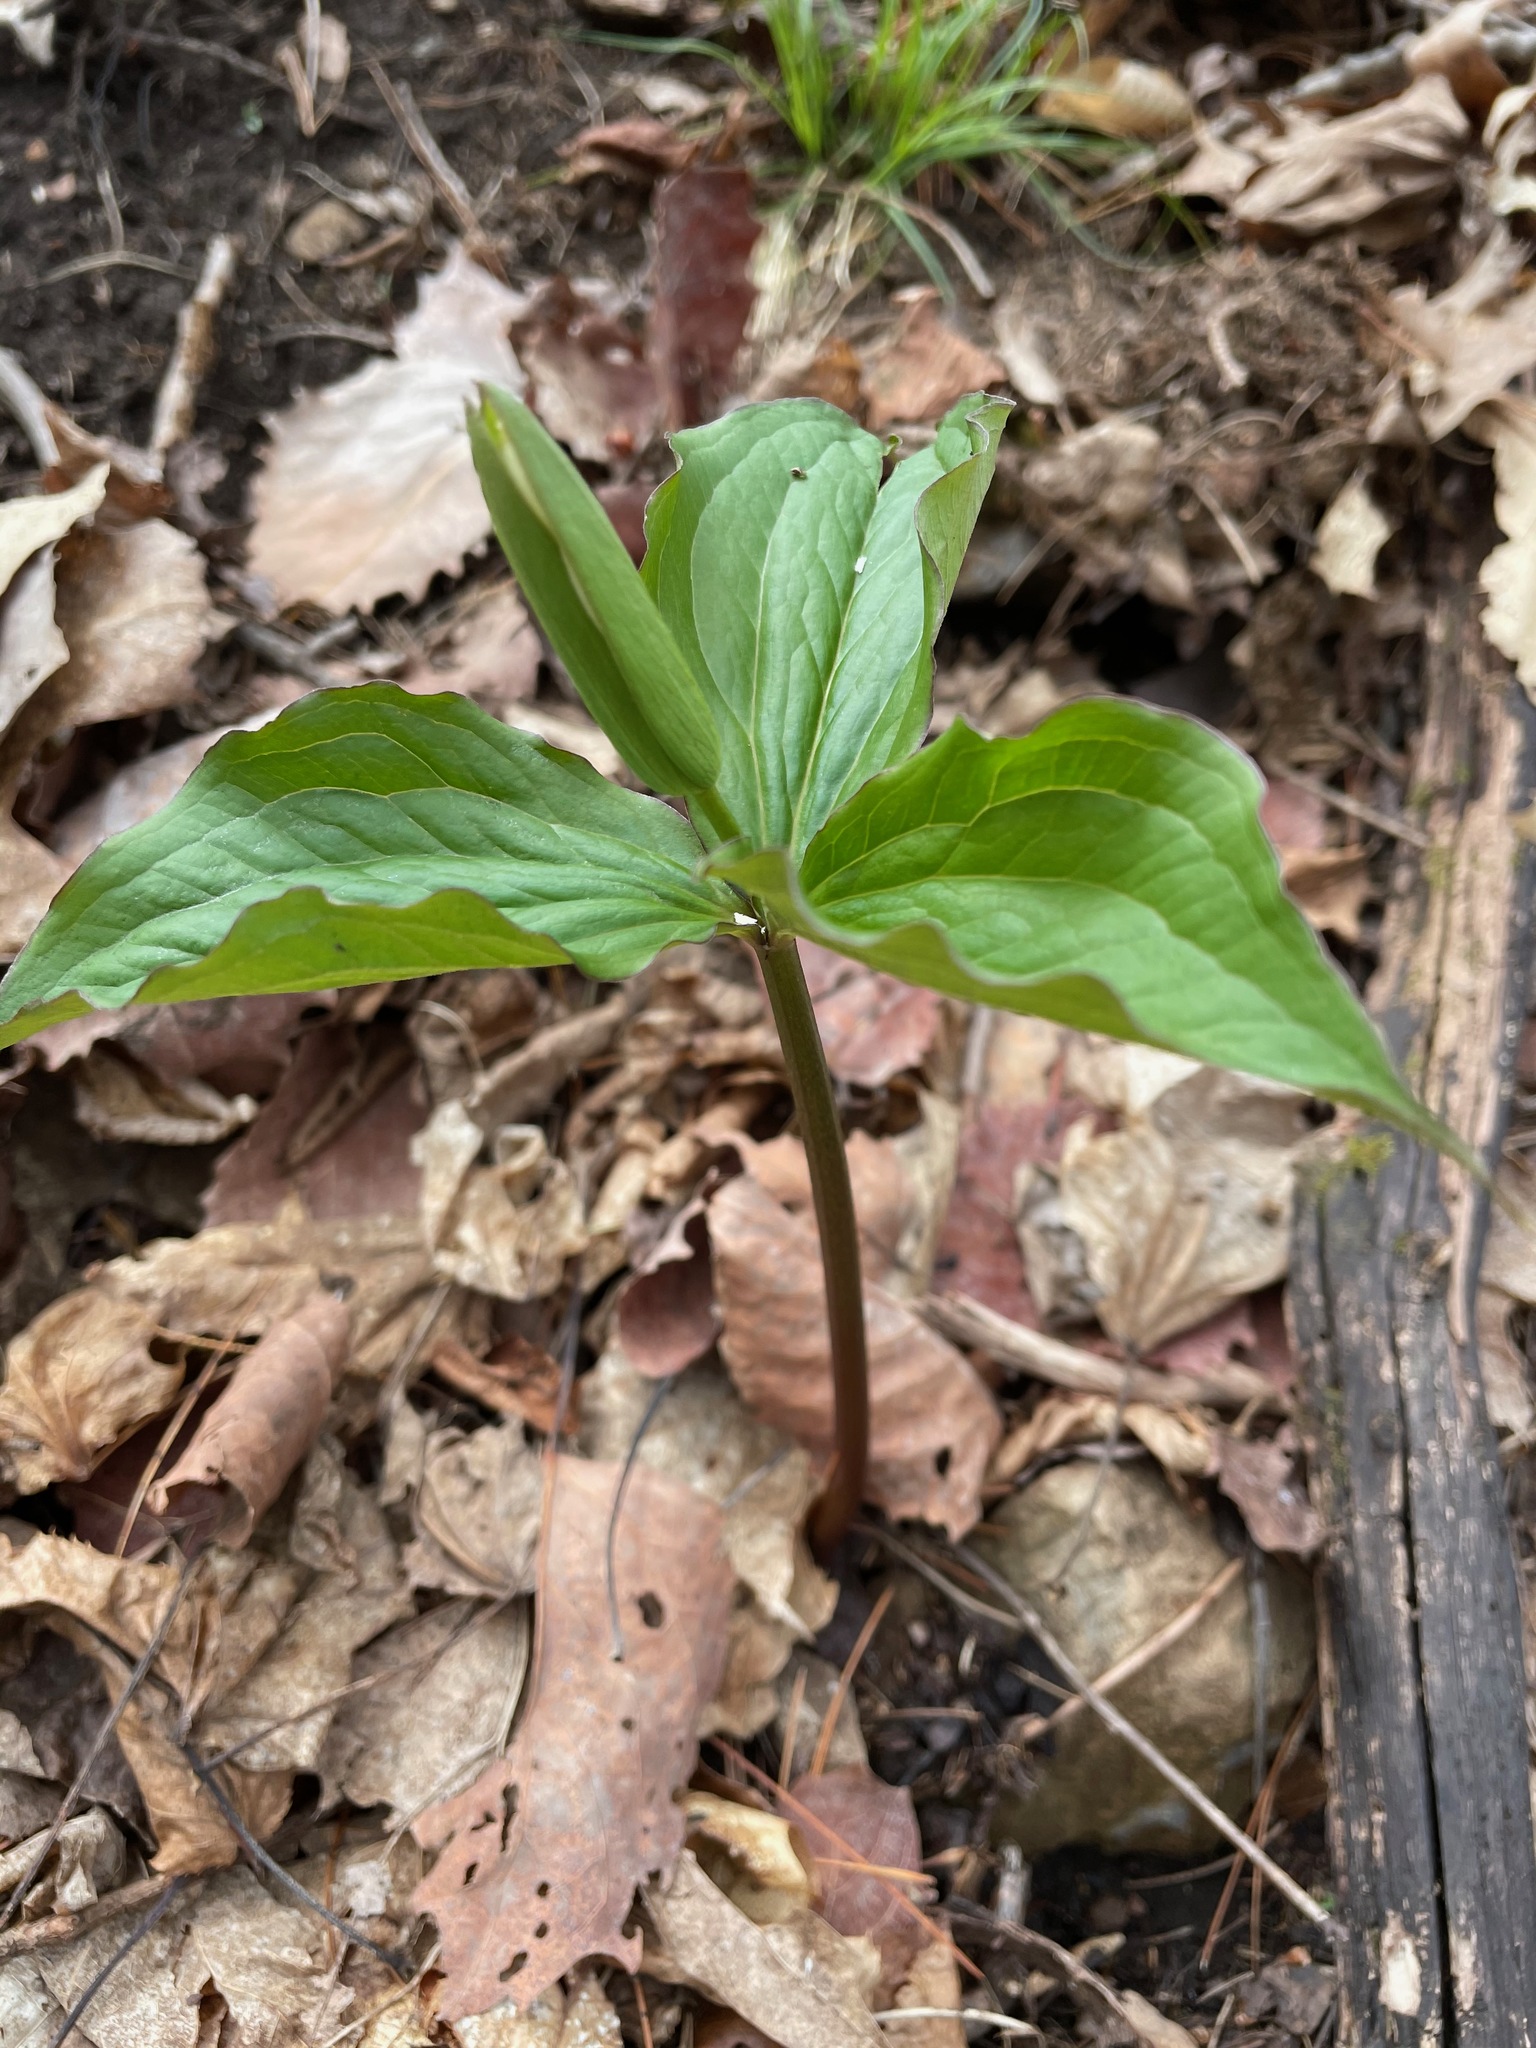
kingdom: Plantae
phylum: Tracheophyta
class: Liliopsida
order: Liliales
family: Melanthiaceae
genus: Trillium
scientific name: Trillium grandiflorum
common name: Great white trillium
